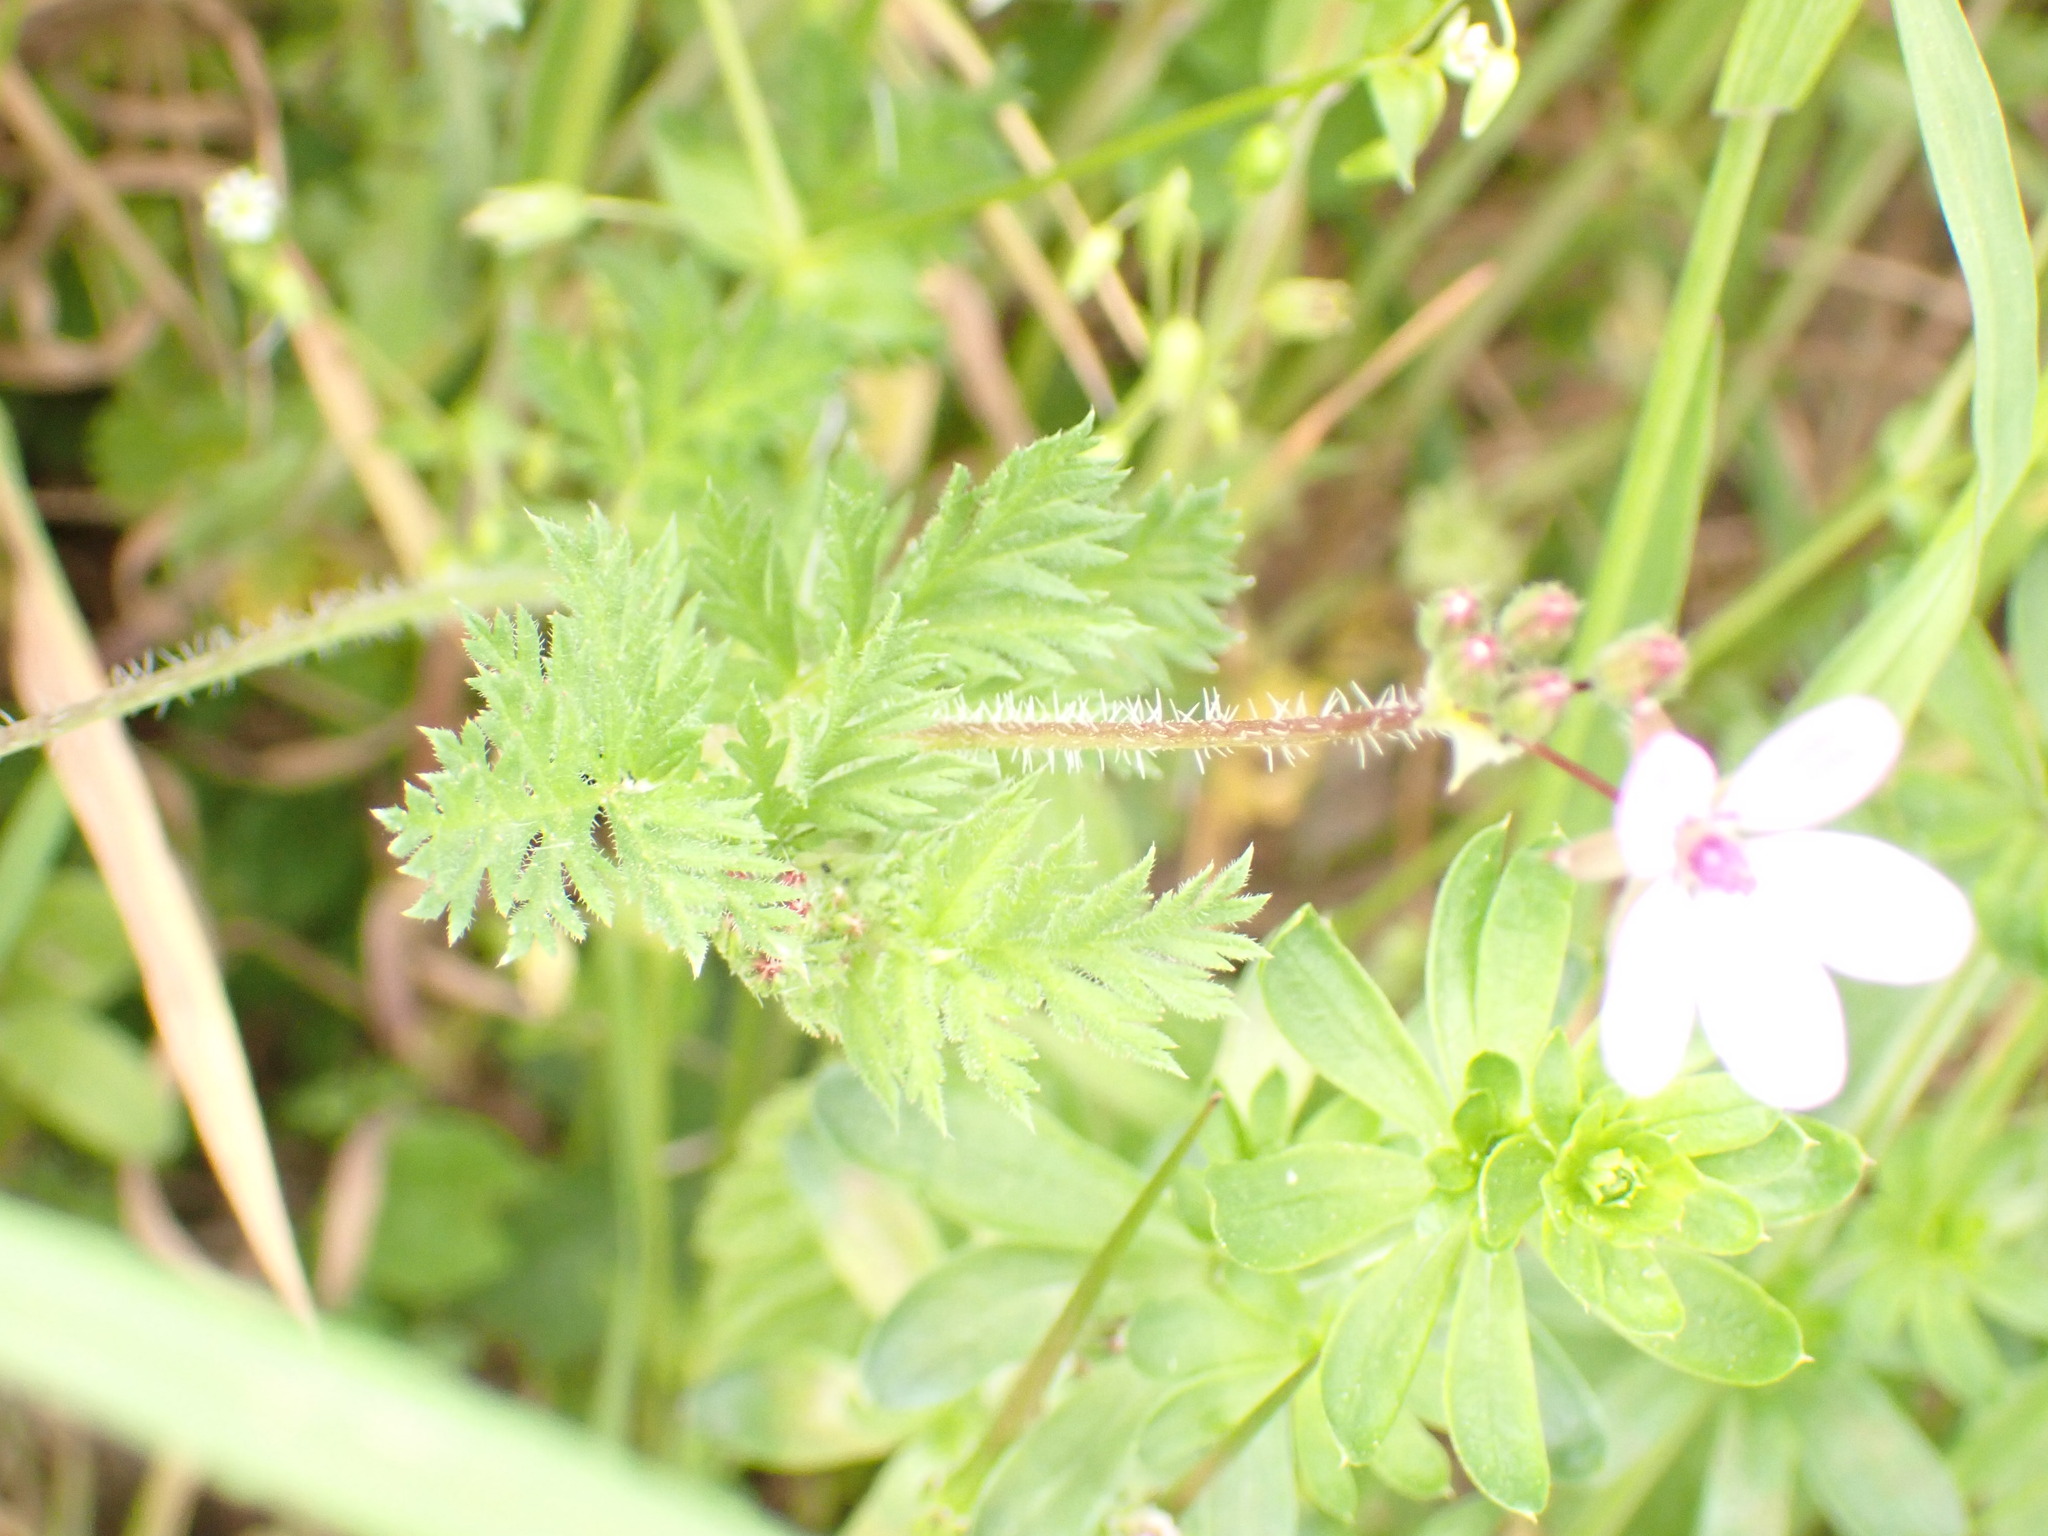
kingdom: Plantae
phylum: Tracheophyta
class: Magnoliopsida
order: Geraniales
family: Geraniaceae
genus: Erodium
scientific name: Erodium cicutarium
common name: Common stork's-bill
